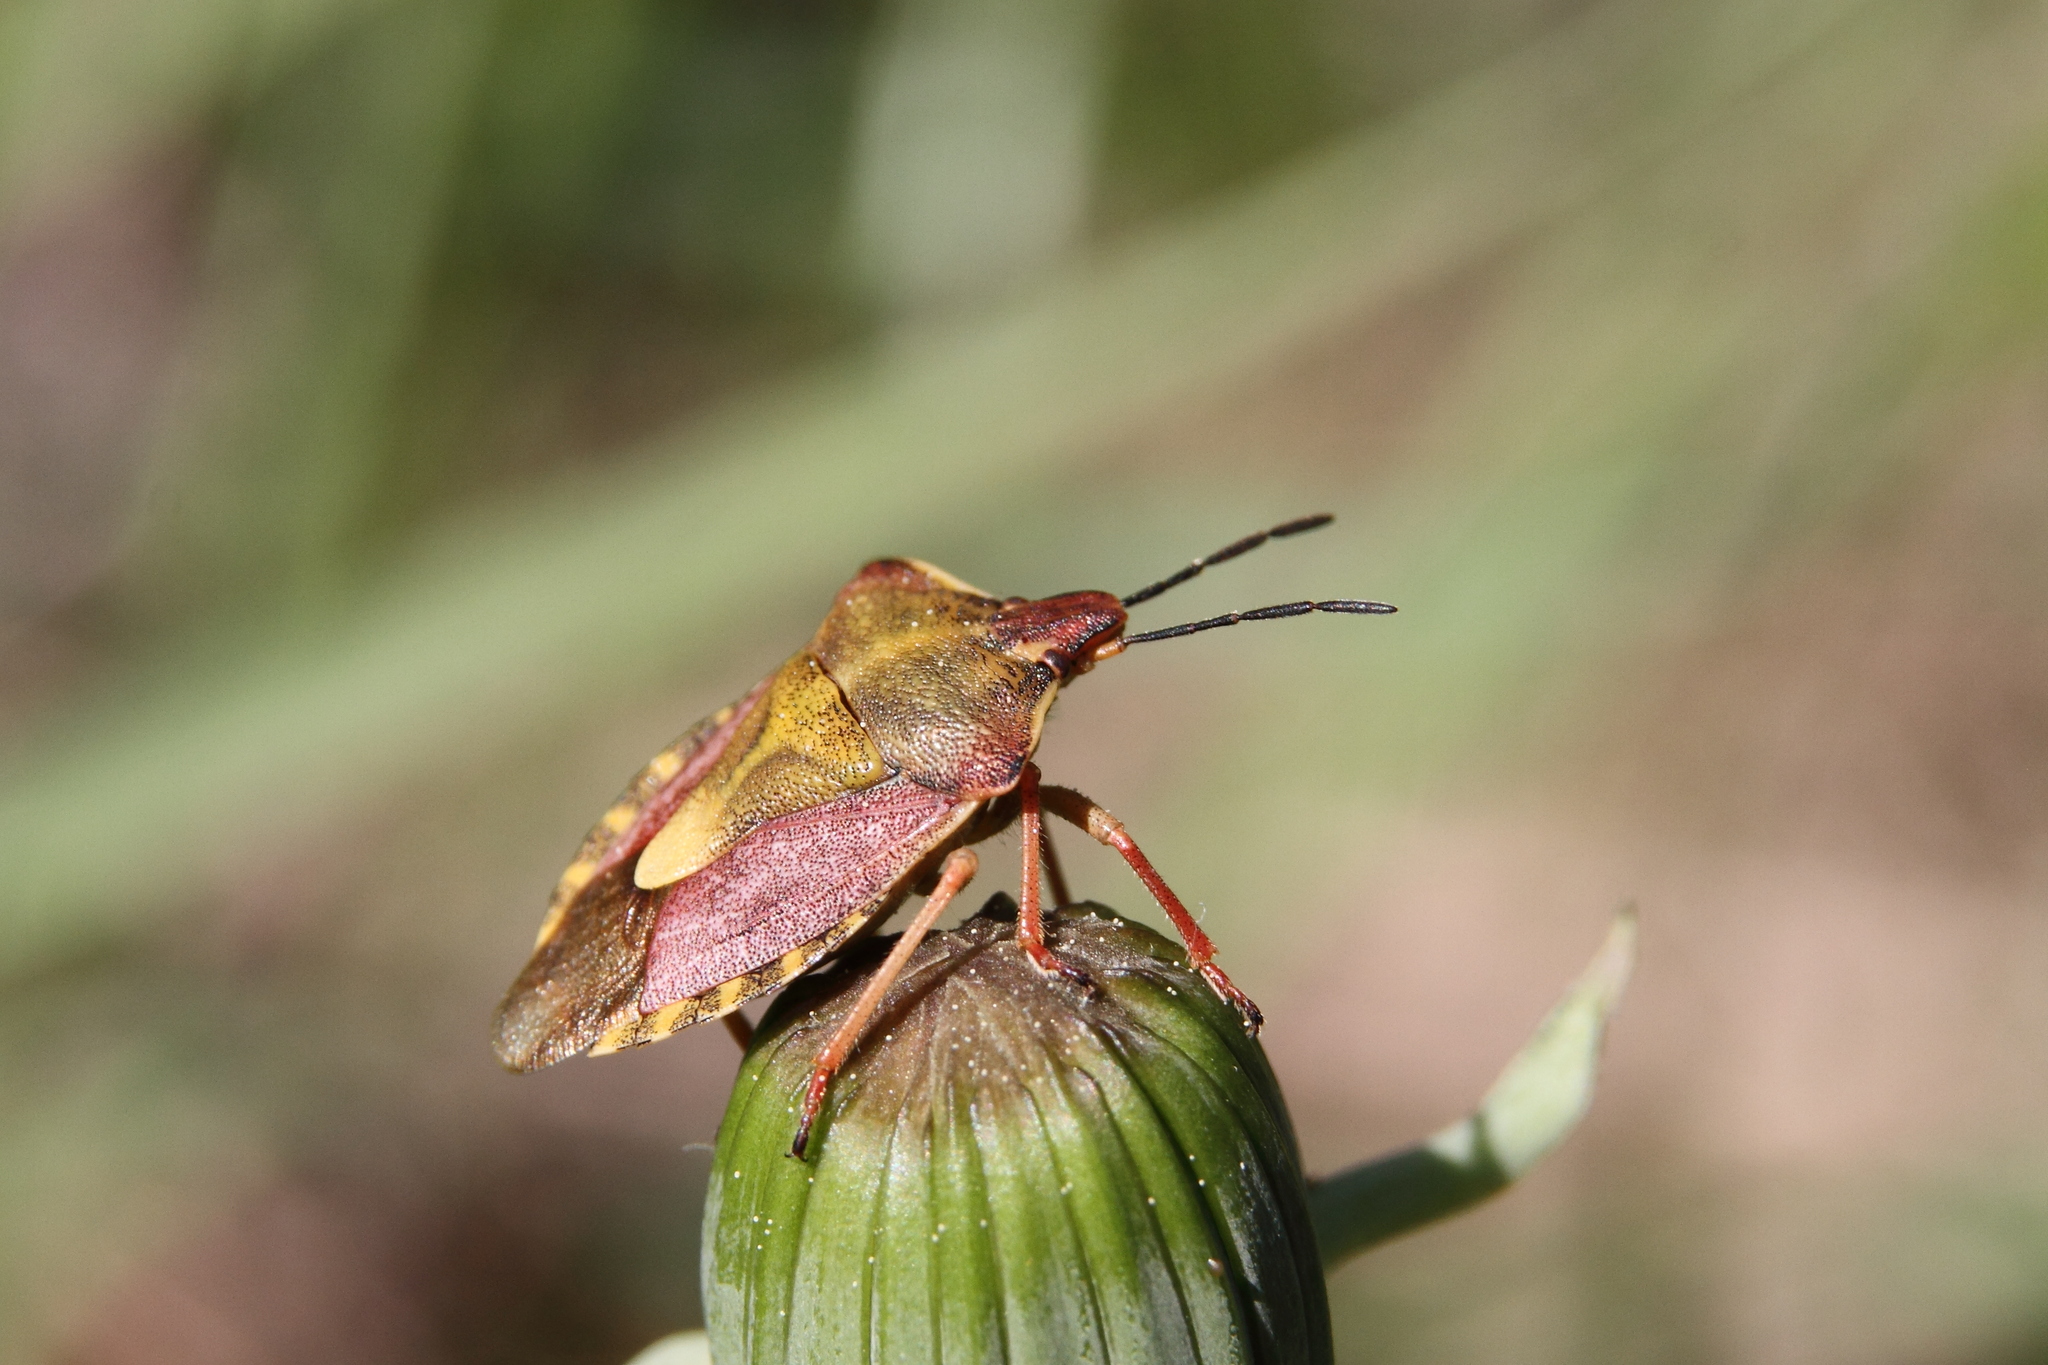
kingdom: Animalia
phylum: Arthropoda
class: Insecta
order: Hemiptera
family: Pentatomidae
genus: Carpocoris
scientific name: Carpocoris purpureipennis
